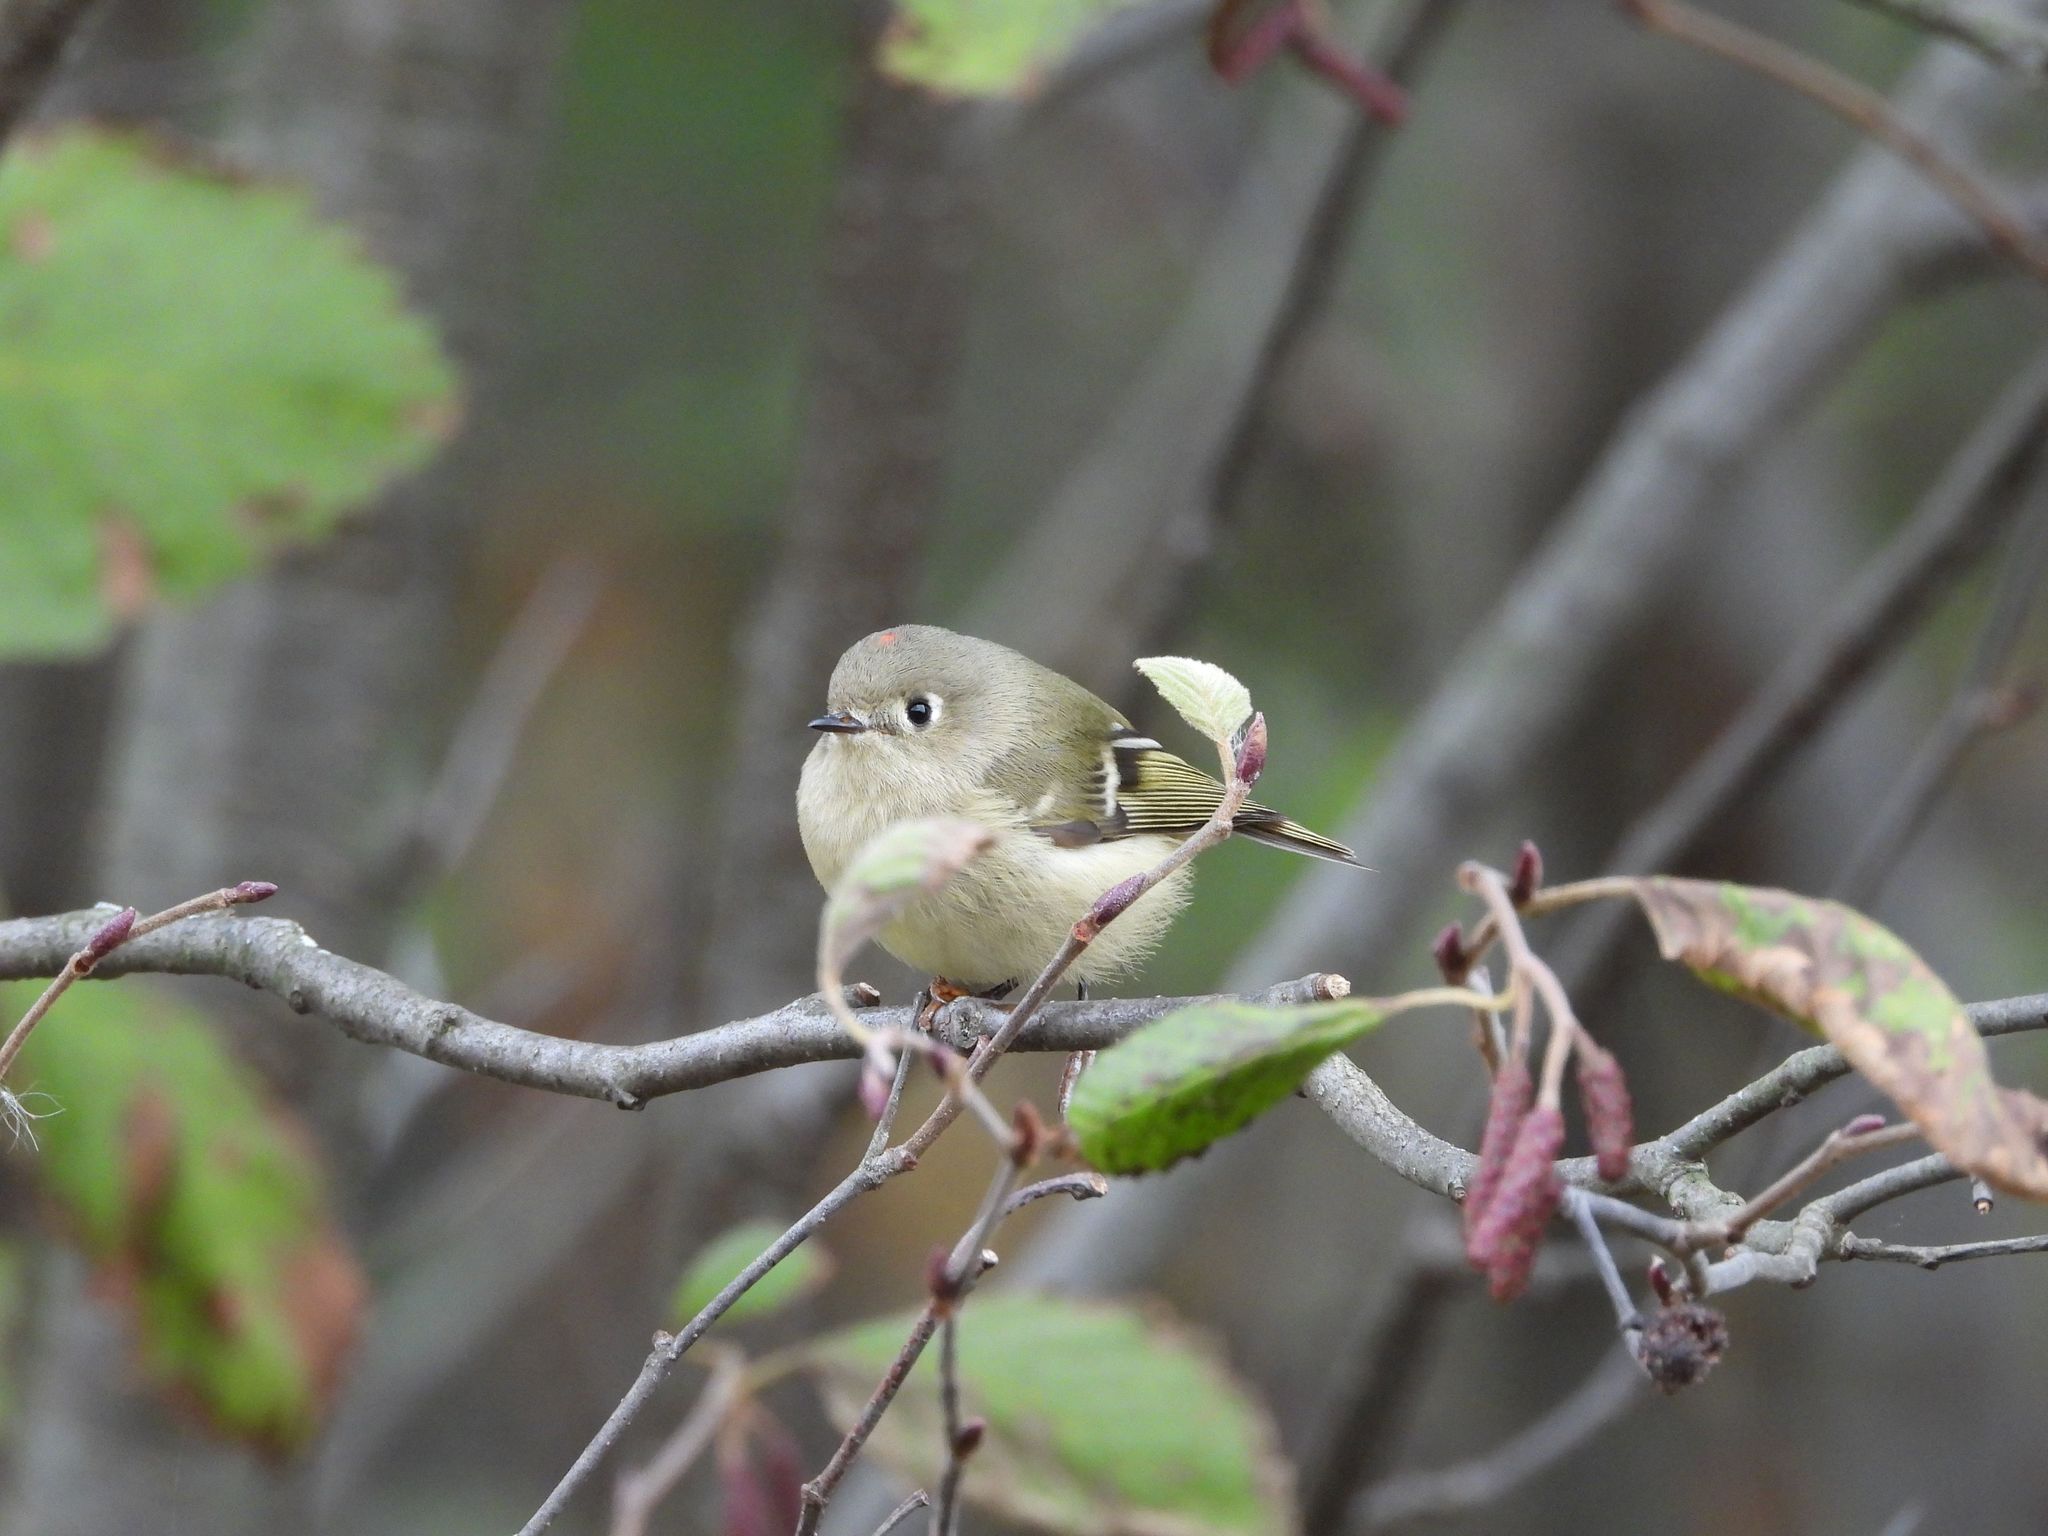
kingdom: Animalia
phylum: Chordata
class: Aves
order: Passeriformes
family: Regulidae
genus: Regulus
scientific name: Regulus calendula
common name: Ruby-crowned kinglet
